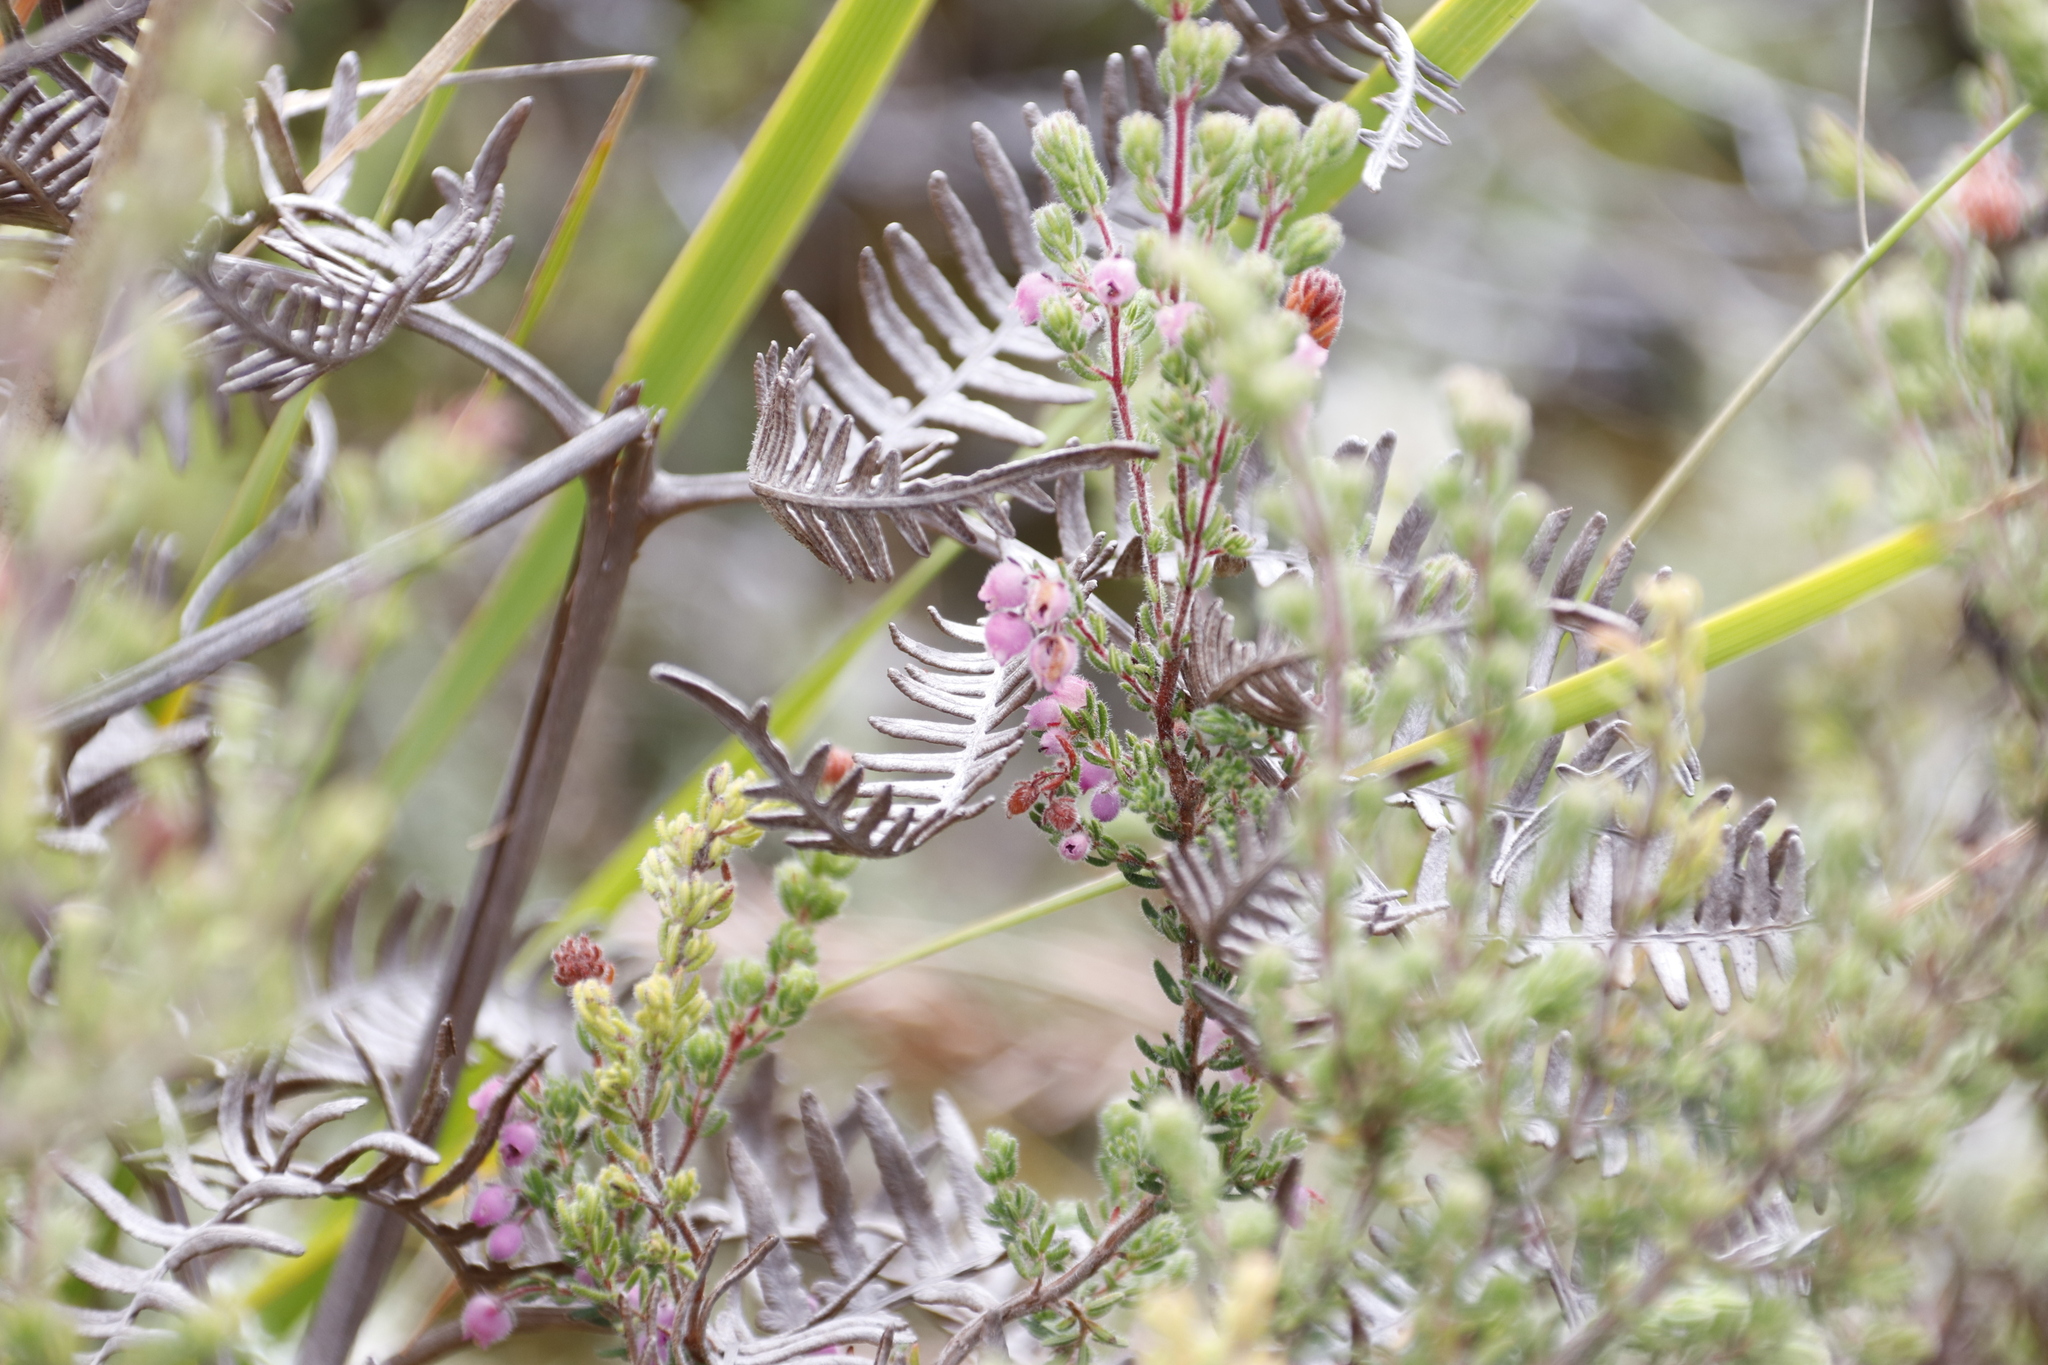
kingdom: Plantae
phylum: Tracheophyta
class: Magnoliopsida
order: Ericales
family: Ericaceae
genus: Erica
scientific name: Erica hirtiflora
